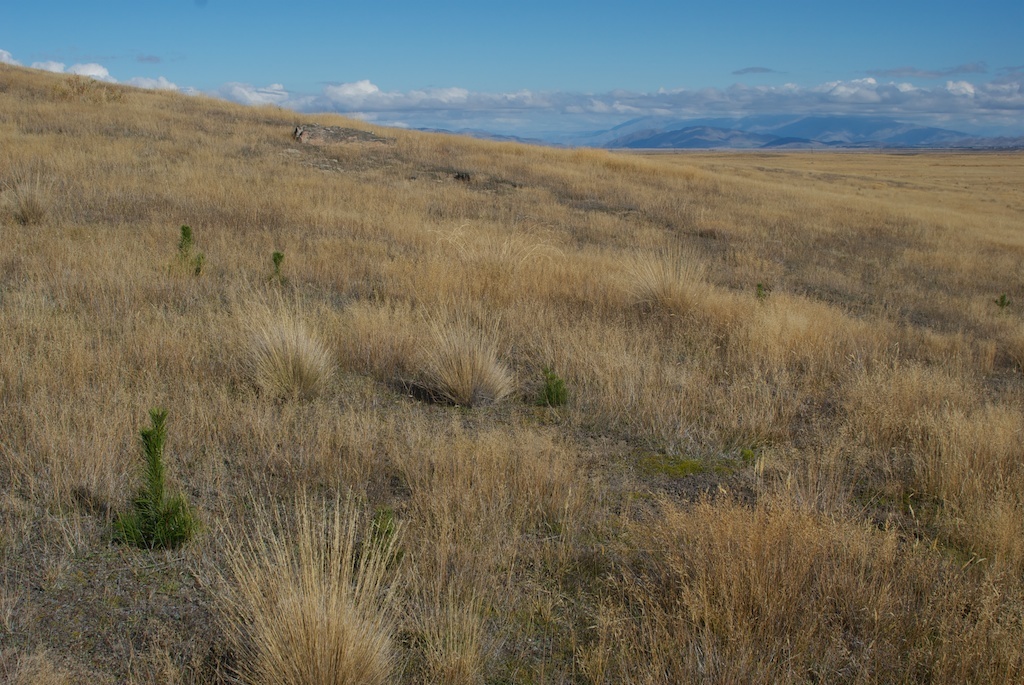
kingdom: Plantae
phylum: Tracheophyta
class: Pinopsida
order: Pinales
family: Pinaceae
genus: Pinus
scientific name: Pinus nigra
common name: Austrian pine
